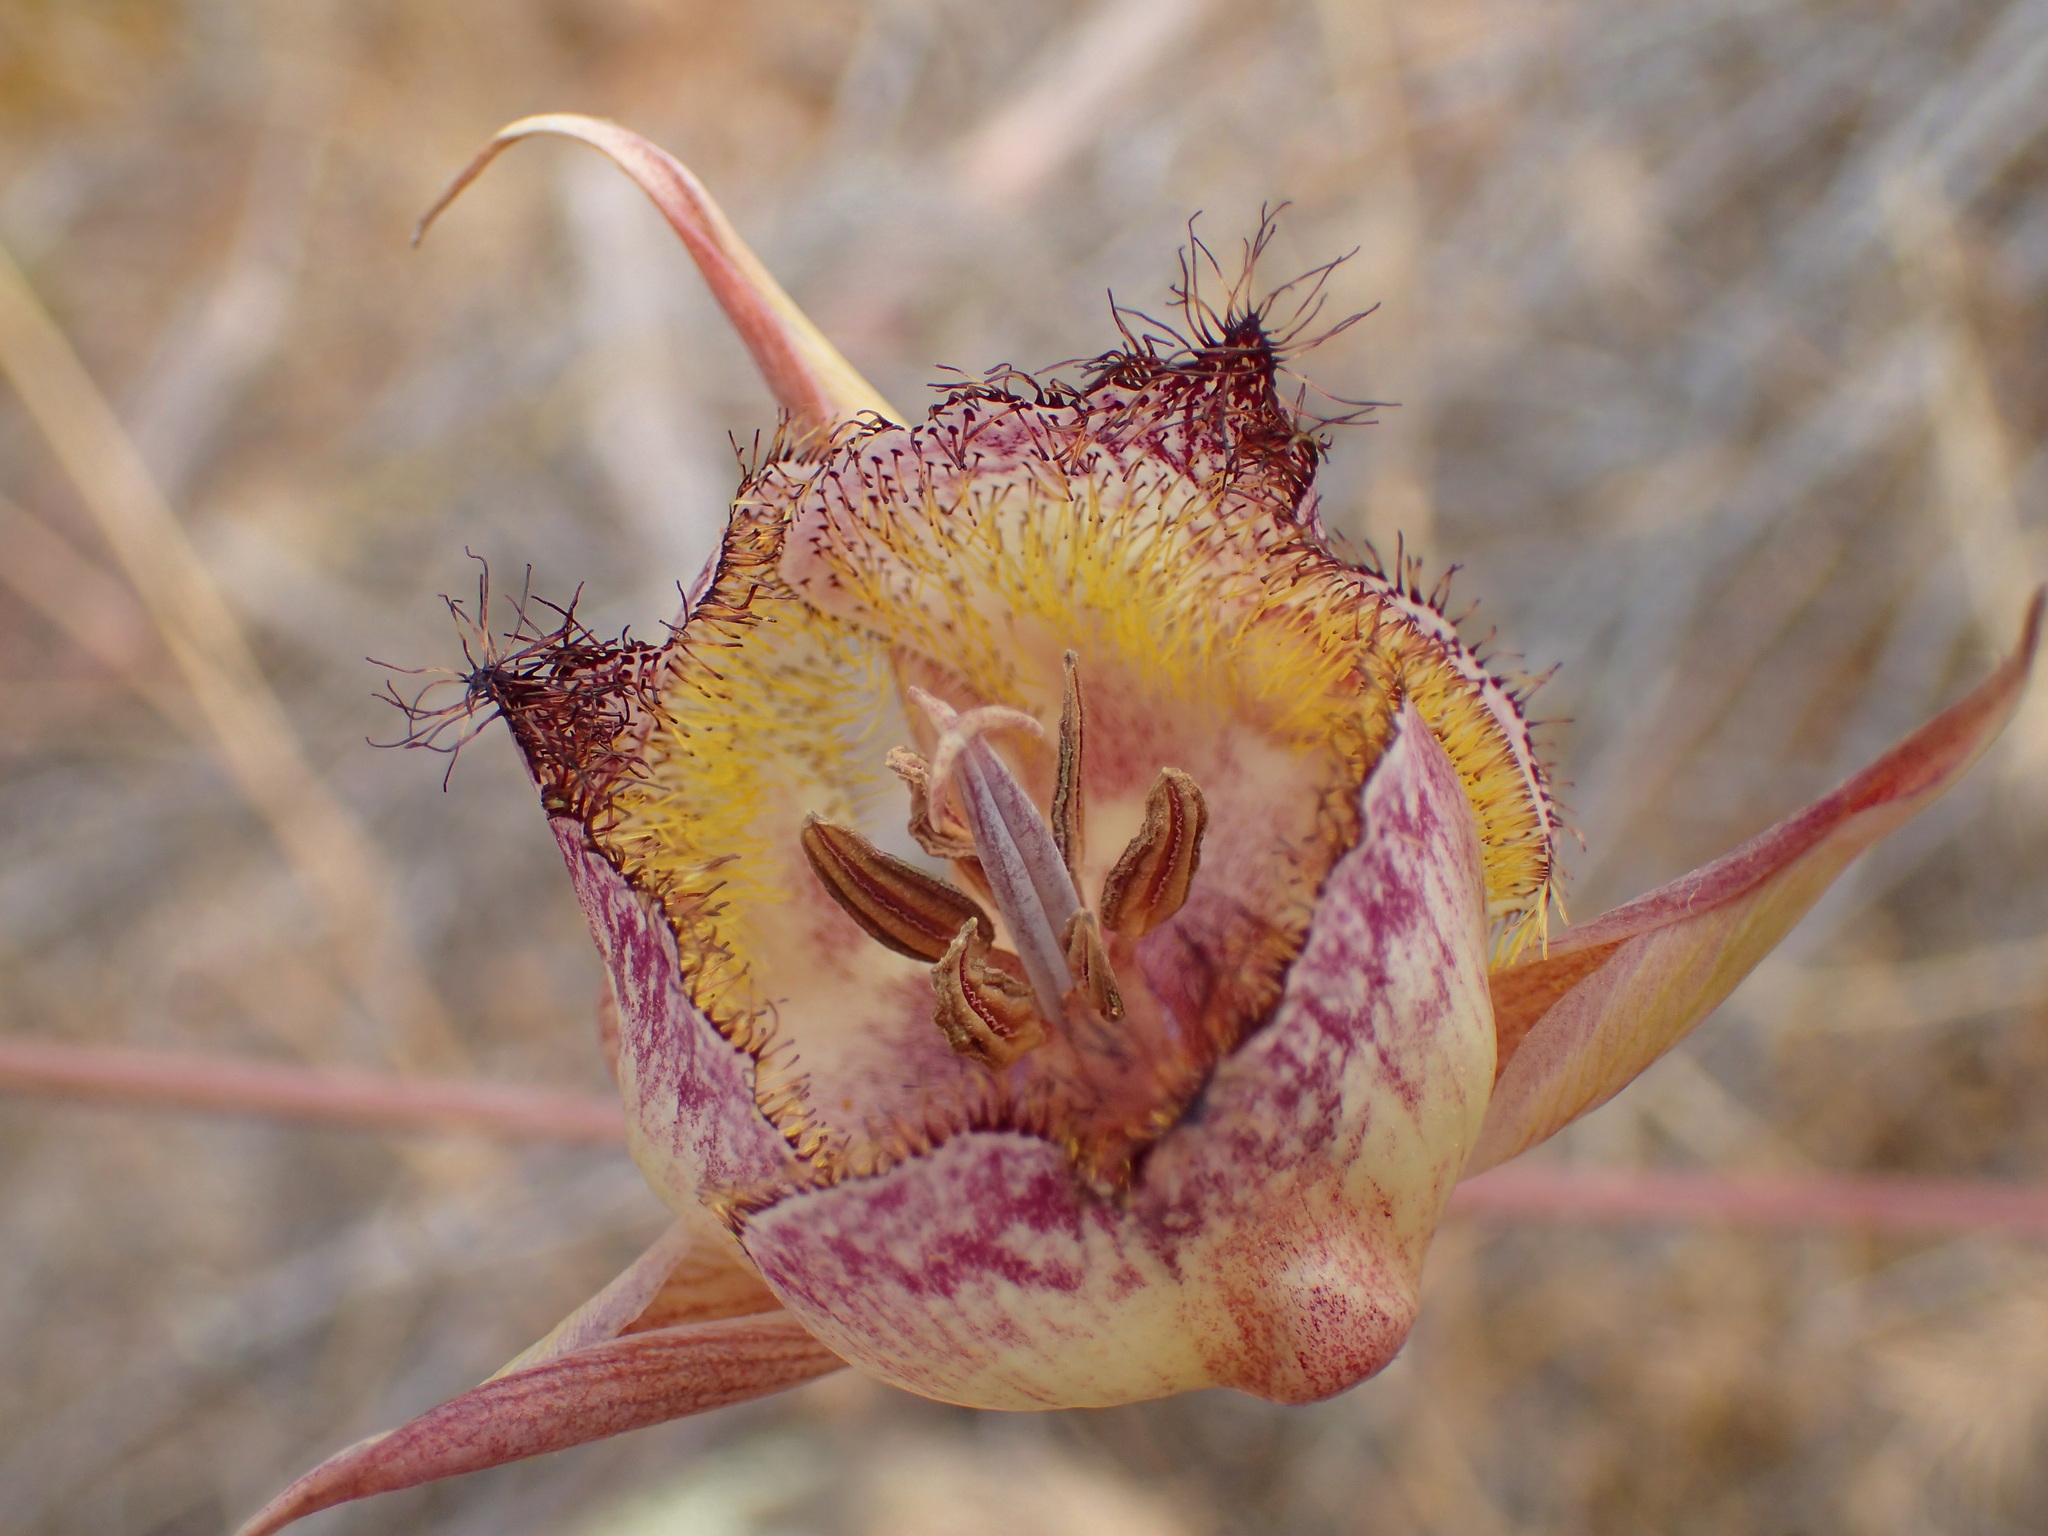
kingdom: Plantae
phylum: Tracheophyta
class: Liliopsida
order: Liliales
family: Liliaceae
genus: Calochortus
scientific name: Calochortus fimbriatus
